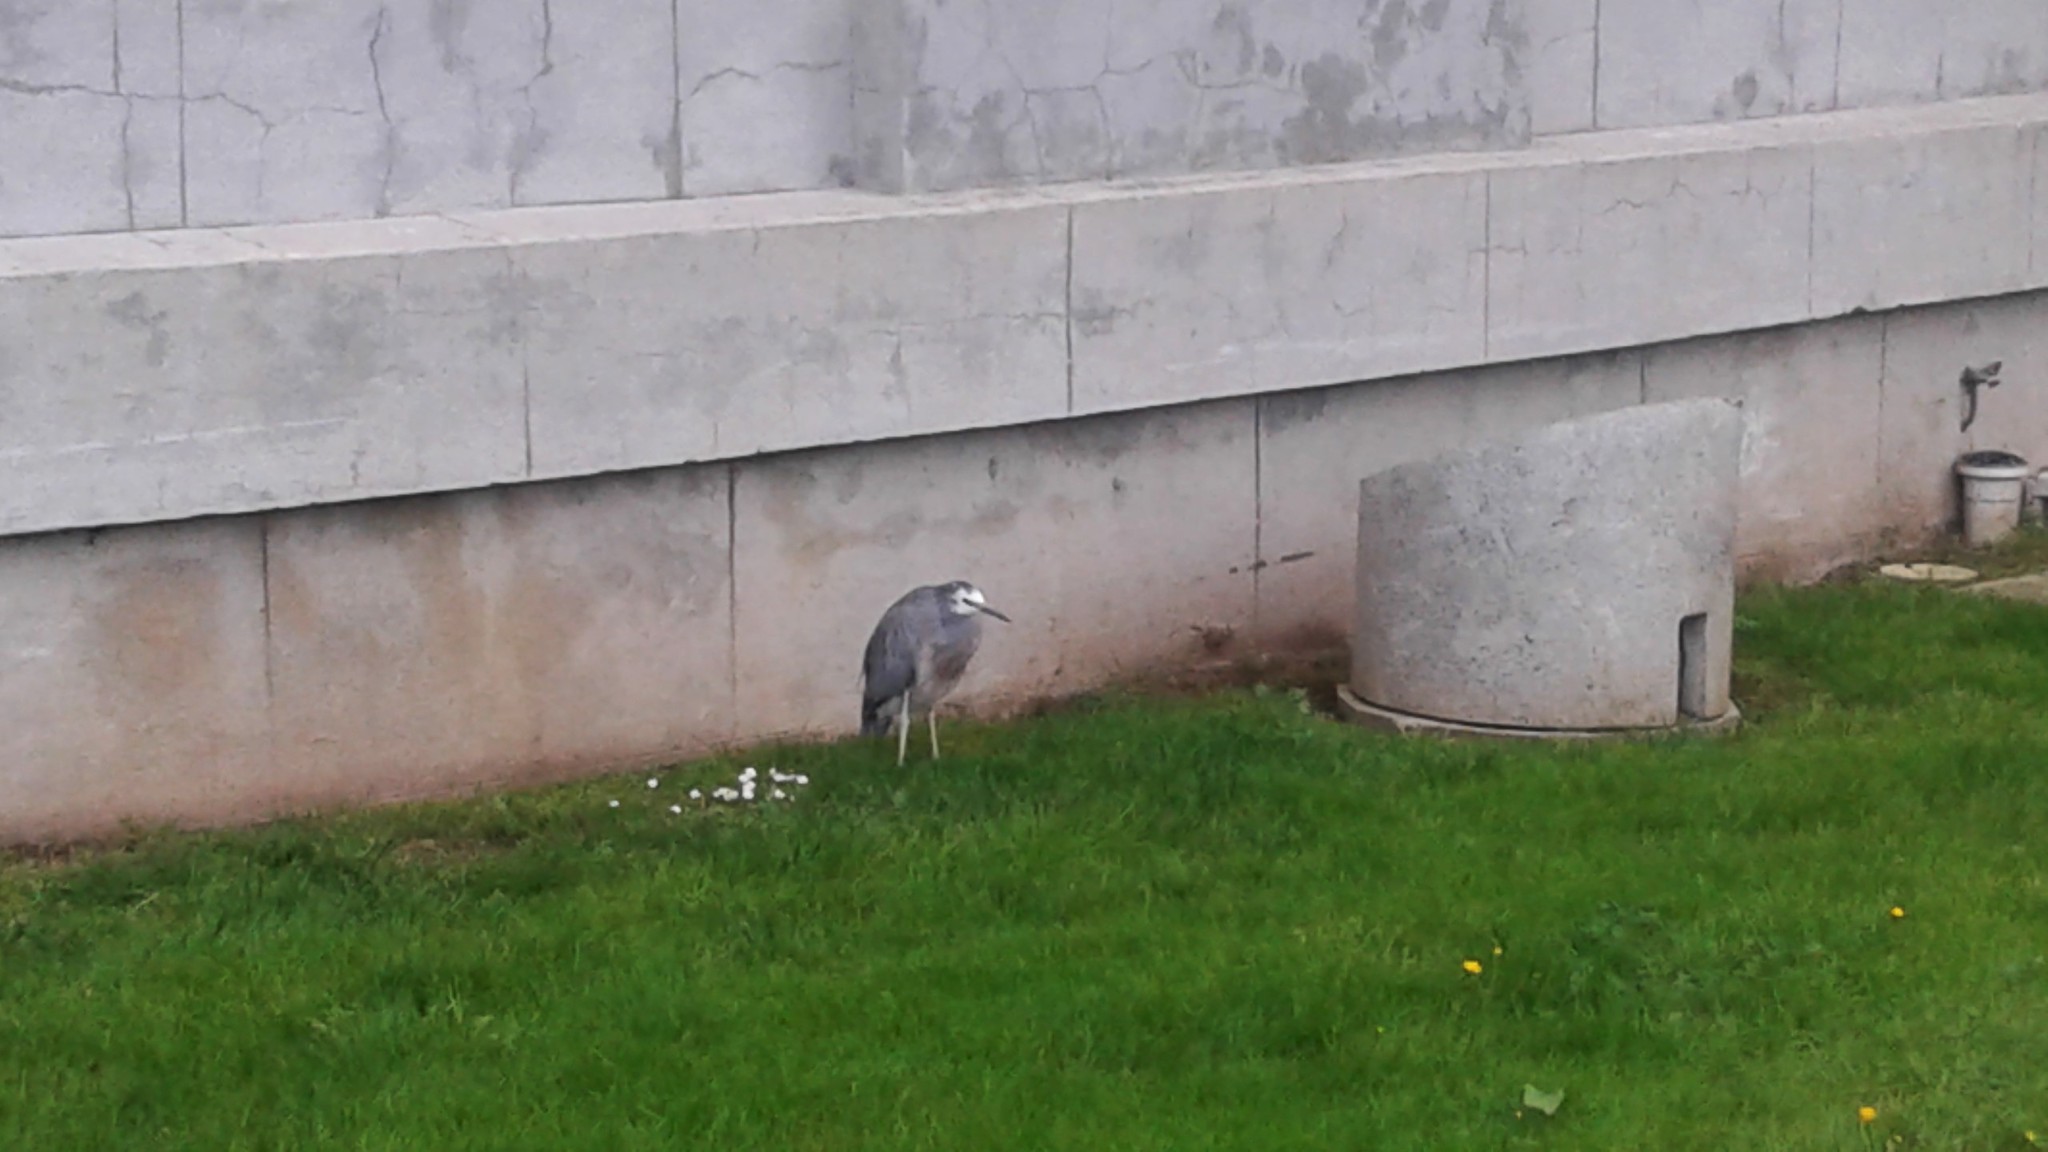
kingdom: Animalia
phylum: Chordata
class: Aves
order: Pelecaniformes
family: Ardeidae
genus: Egretta
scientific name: Egretta novaehollandiae
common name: White-faced heron
